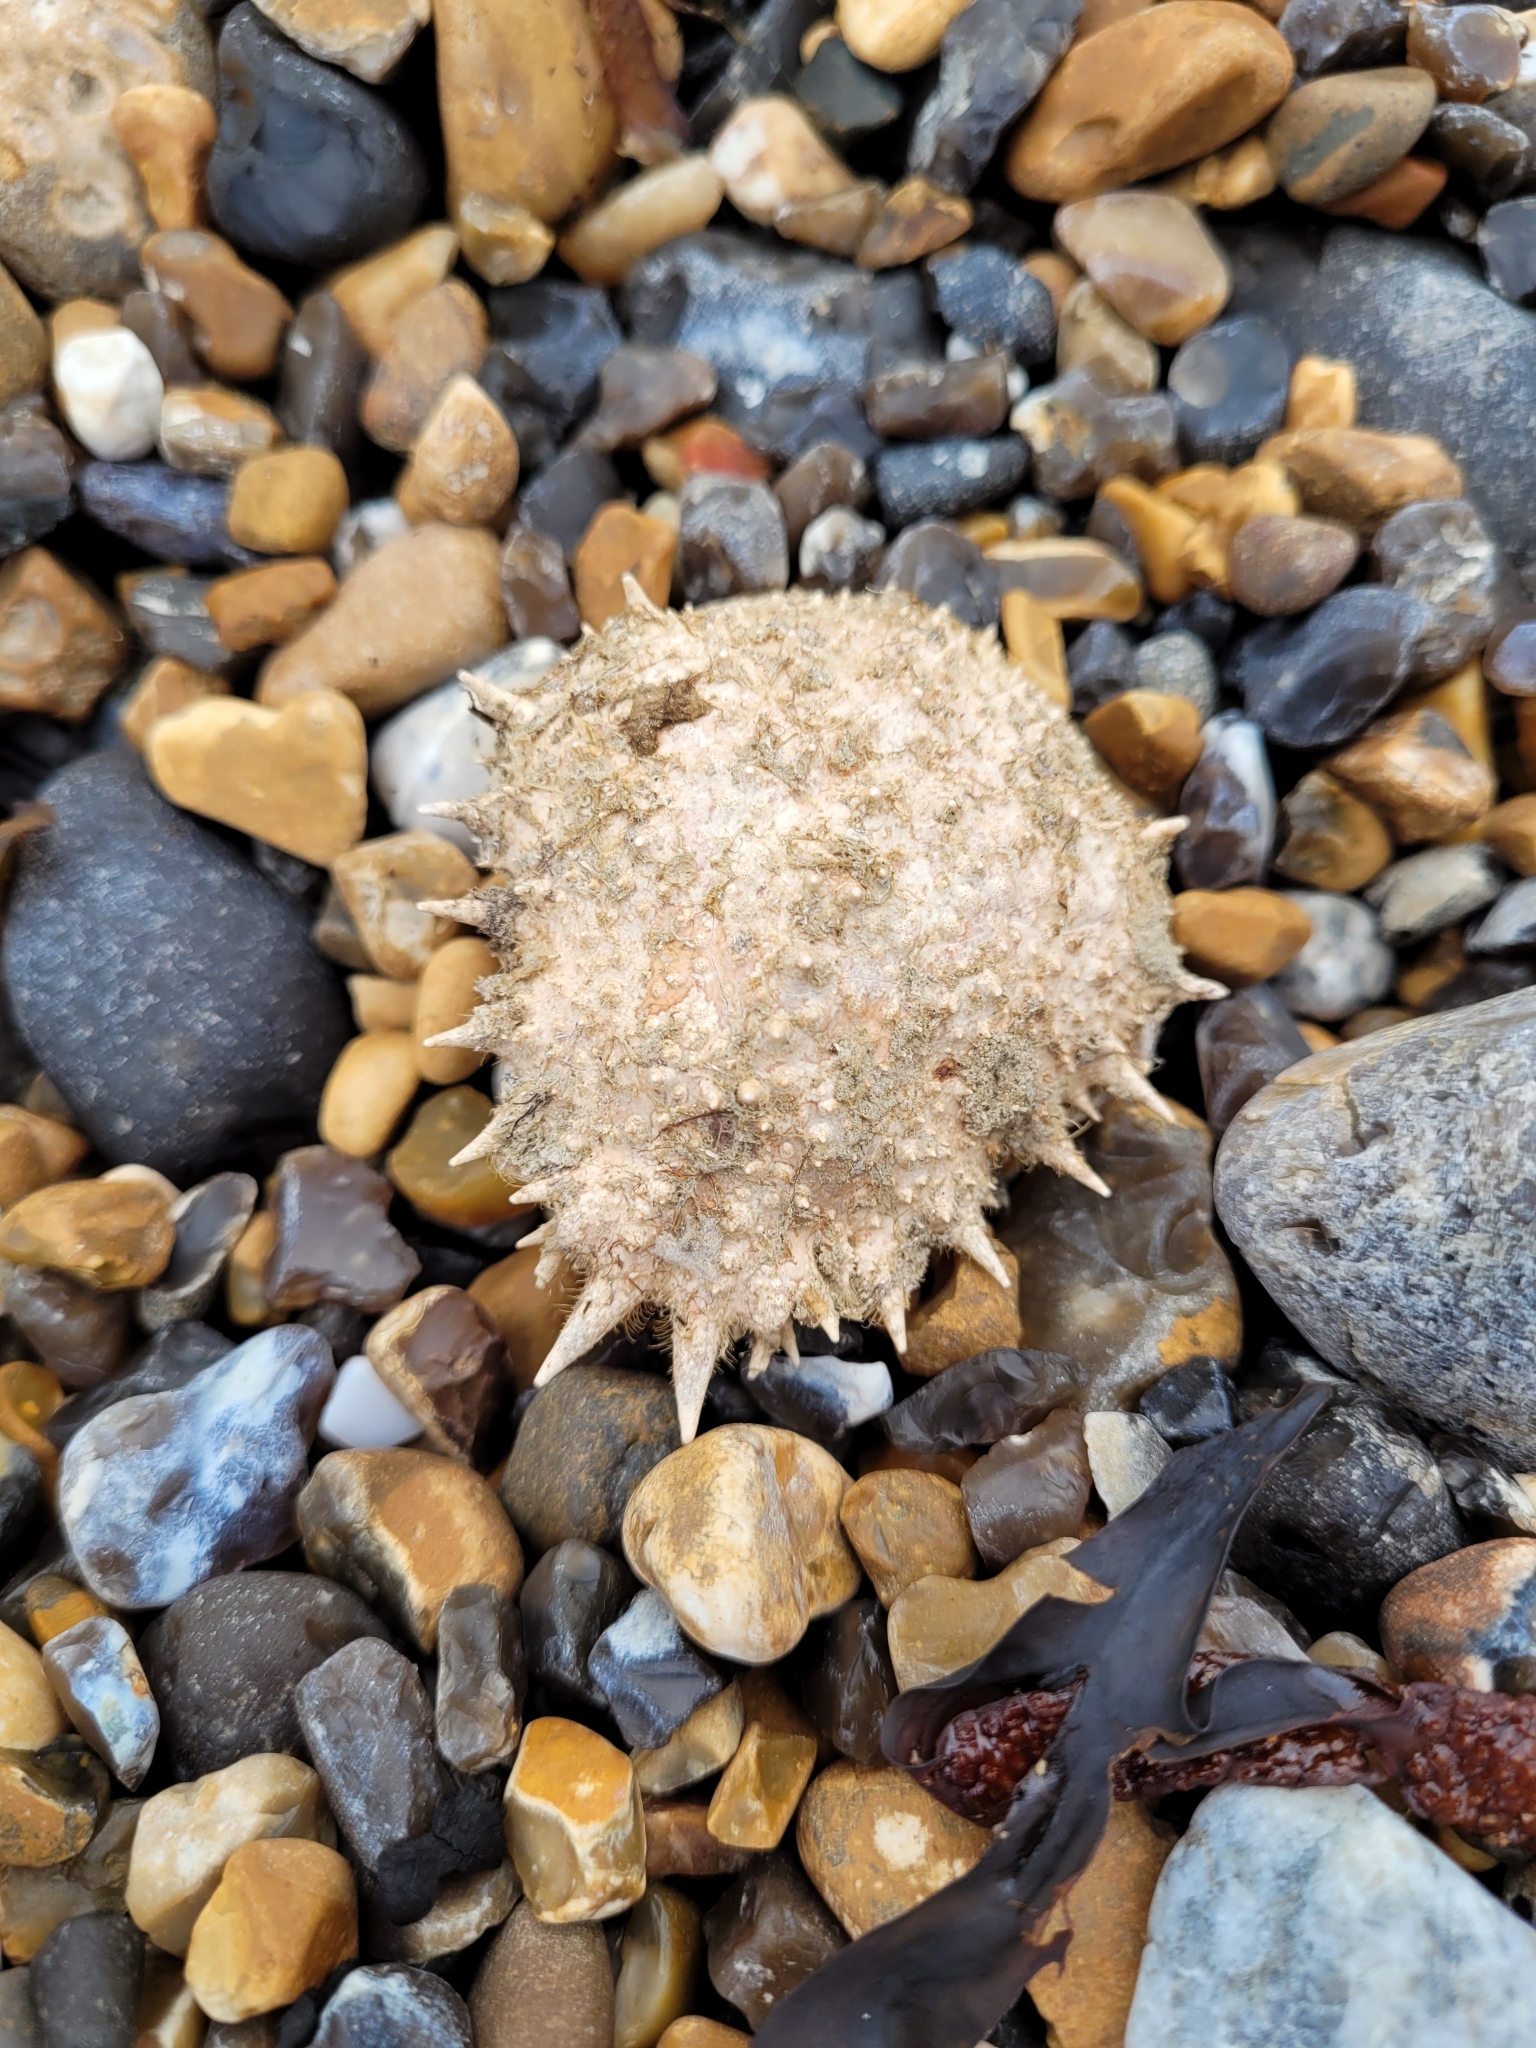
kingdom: Animalia
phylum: Arthropoda
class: Malacostraca
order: Decapoda
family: Majidae
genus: Maja
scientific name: Maja brachydactyla
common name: Common spider crab
